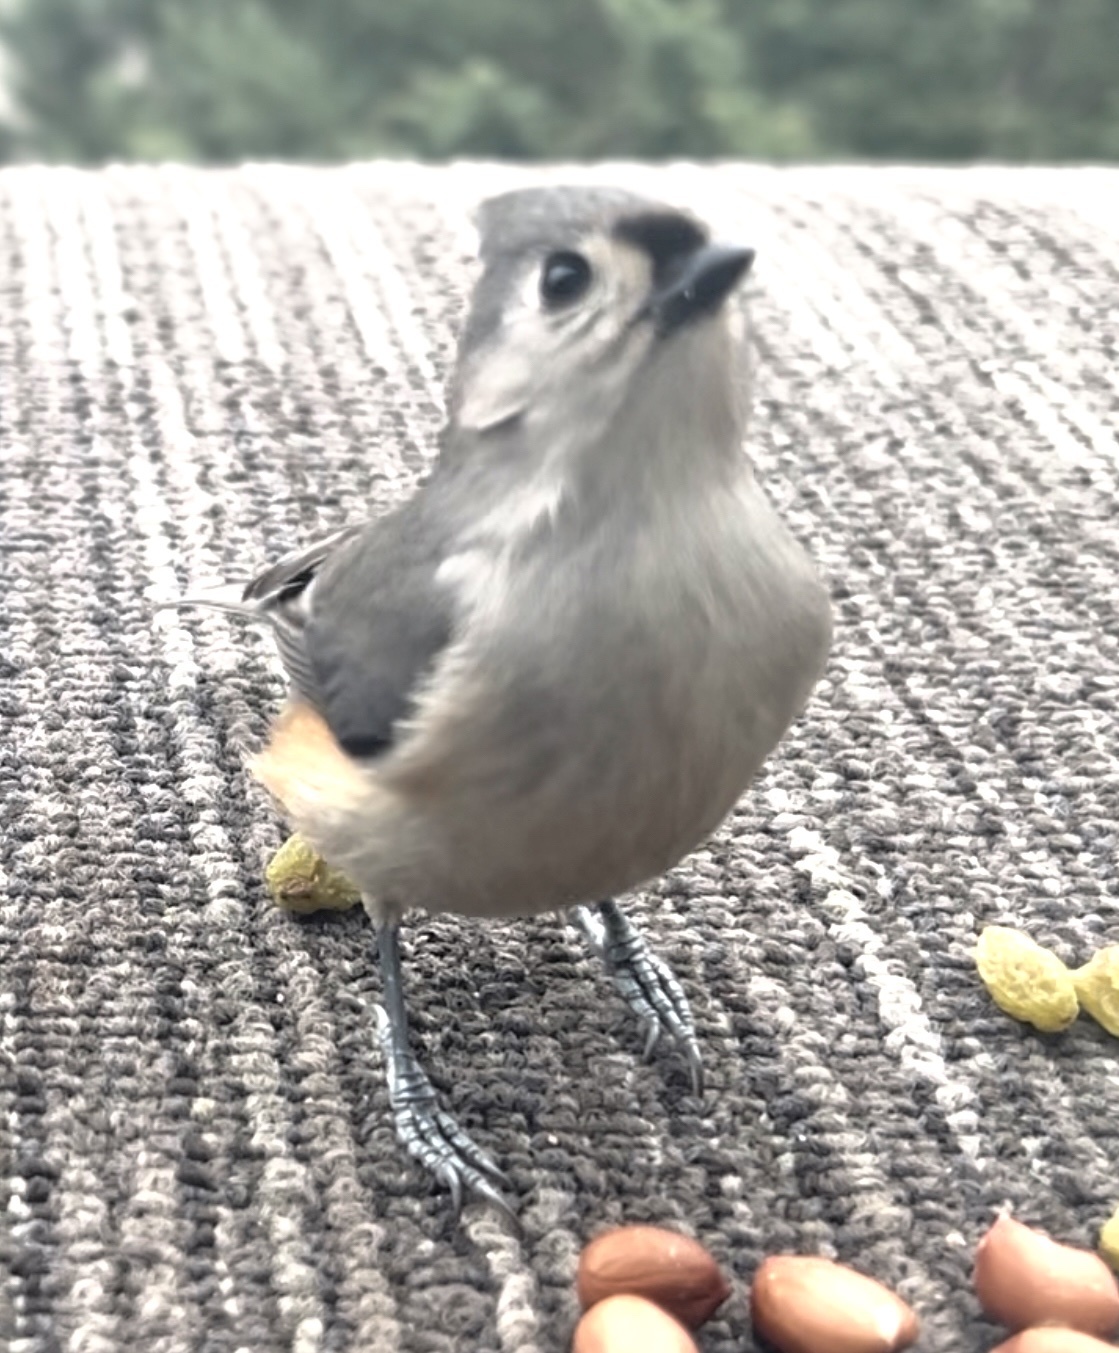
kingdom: Animalia
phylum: Chordata
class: Aves
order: Passeriformes
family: Paridae
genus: Baeolophus
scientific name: Baeolophus bicolor
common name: Tufted titmouse
